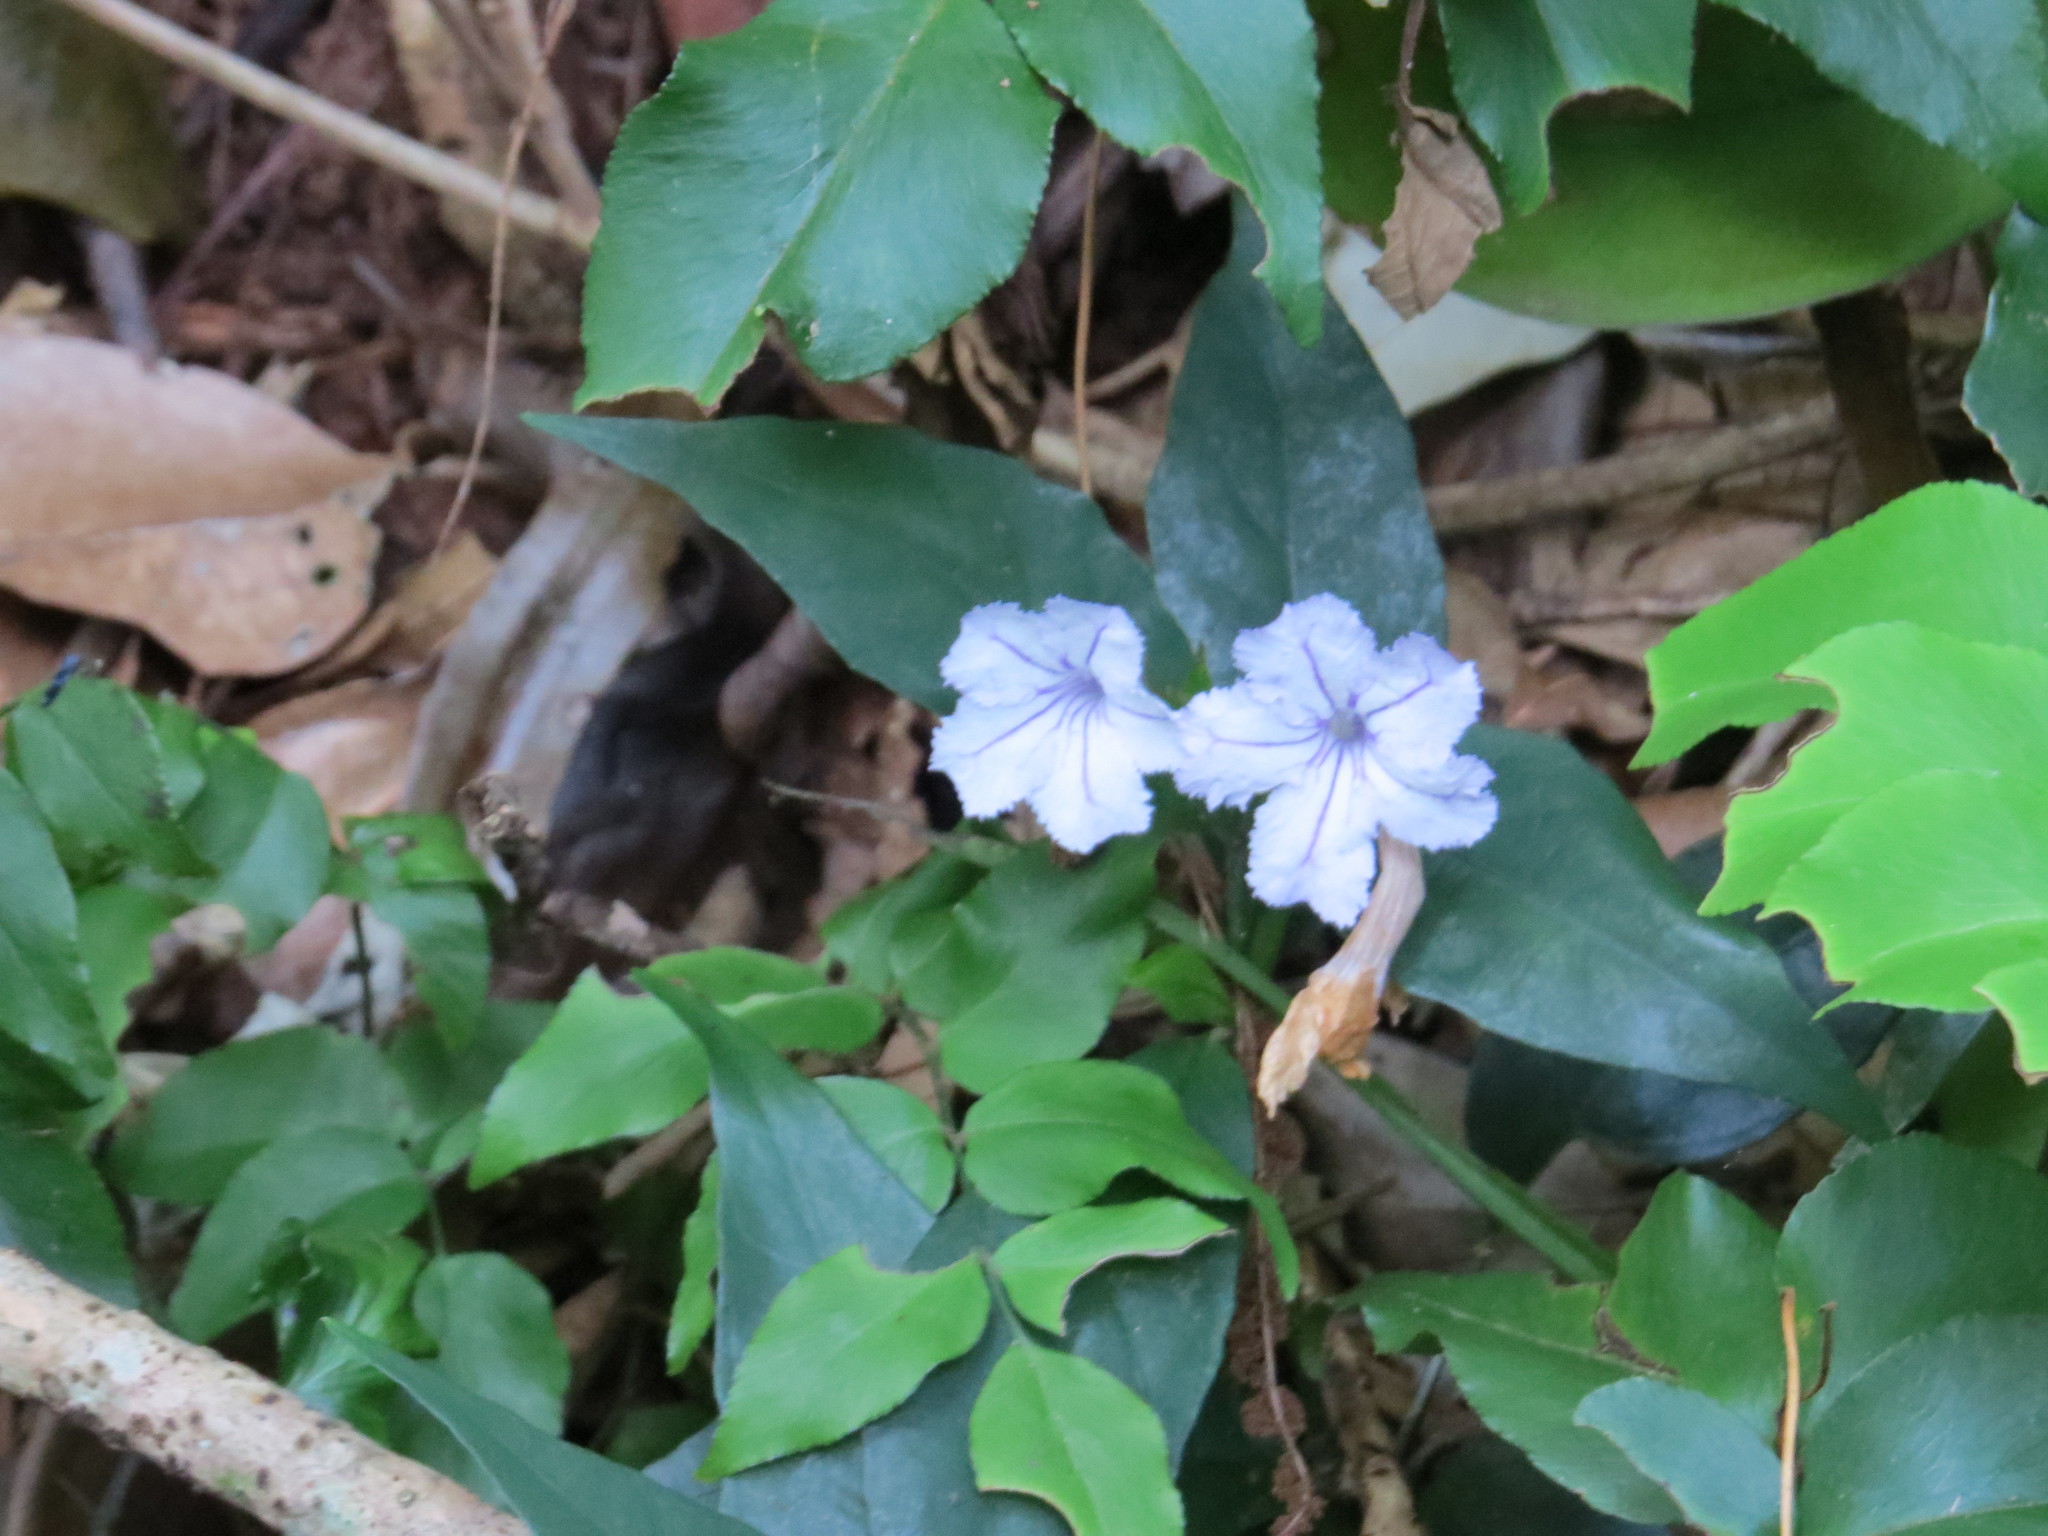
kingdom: Plantae
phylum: Tracheophyta
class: Magnoliopsida
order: Lamiales
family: Acanthaceae
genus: Ruellia
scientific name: Ruellia solitaria
